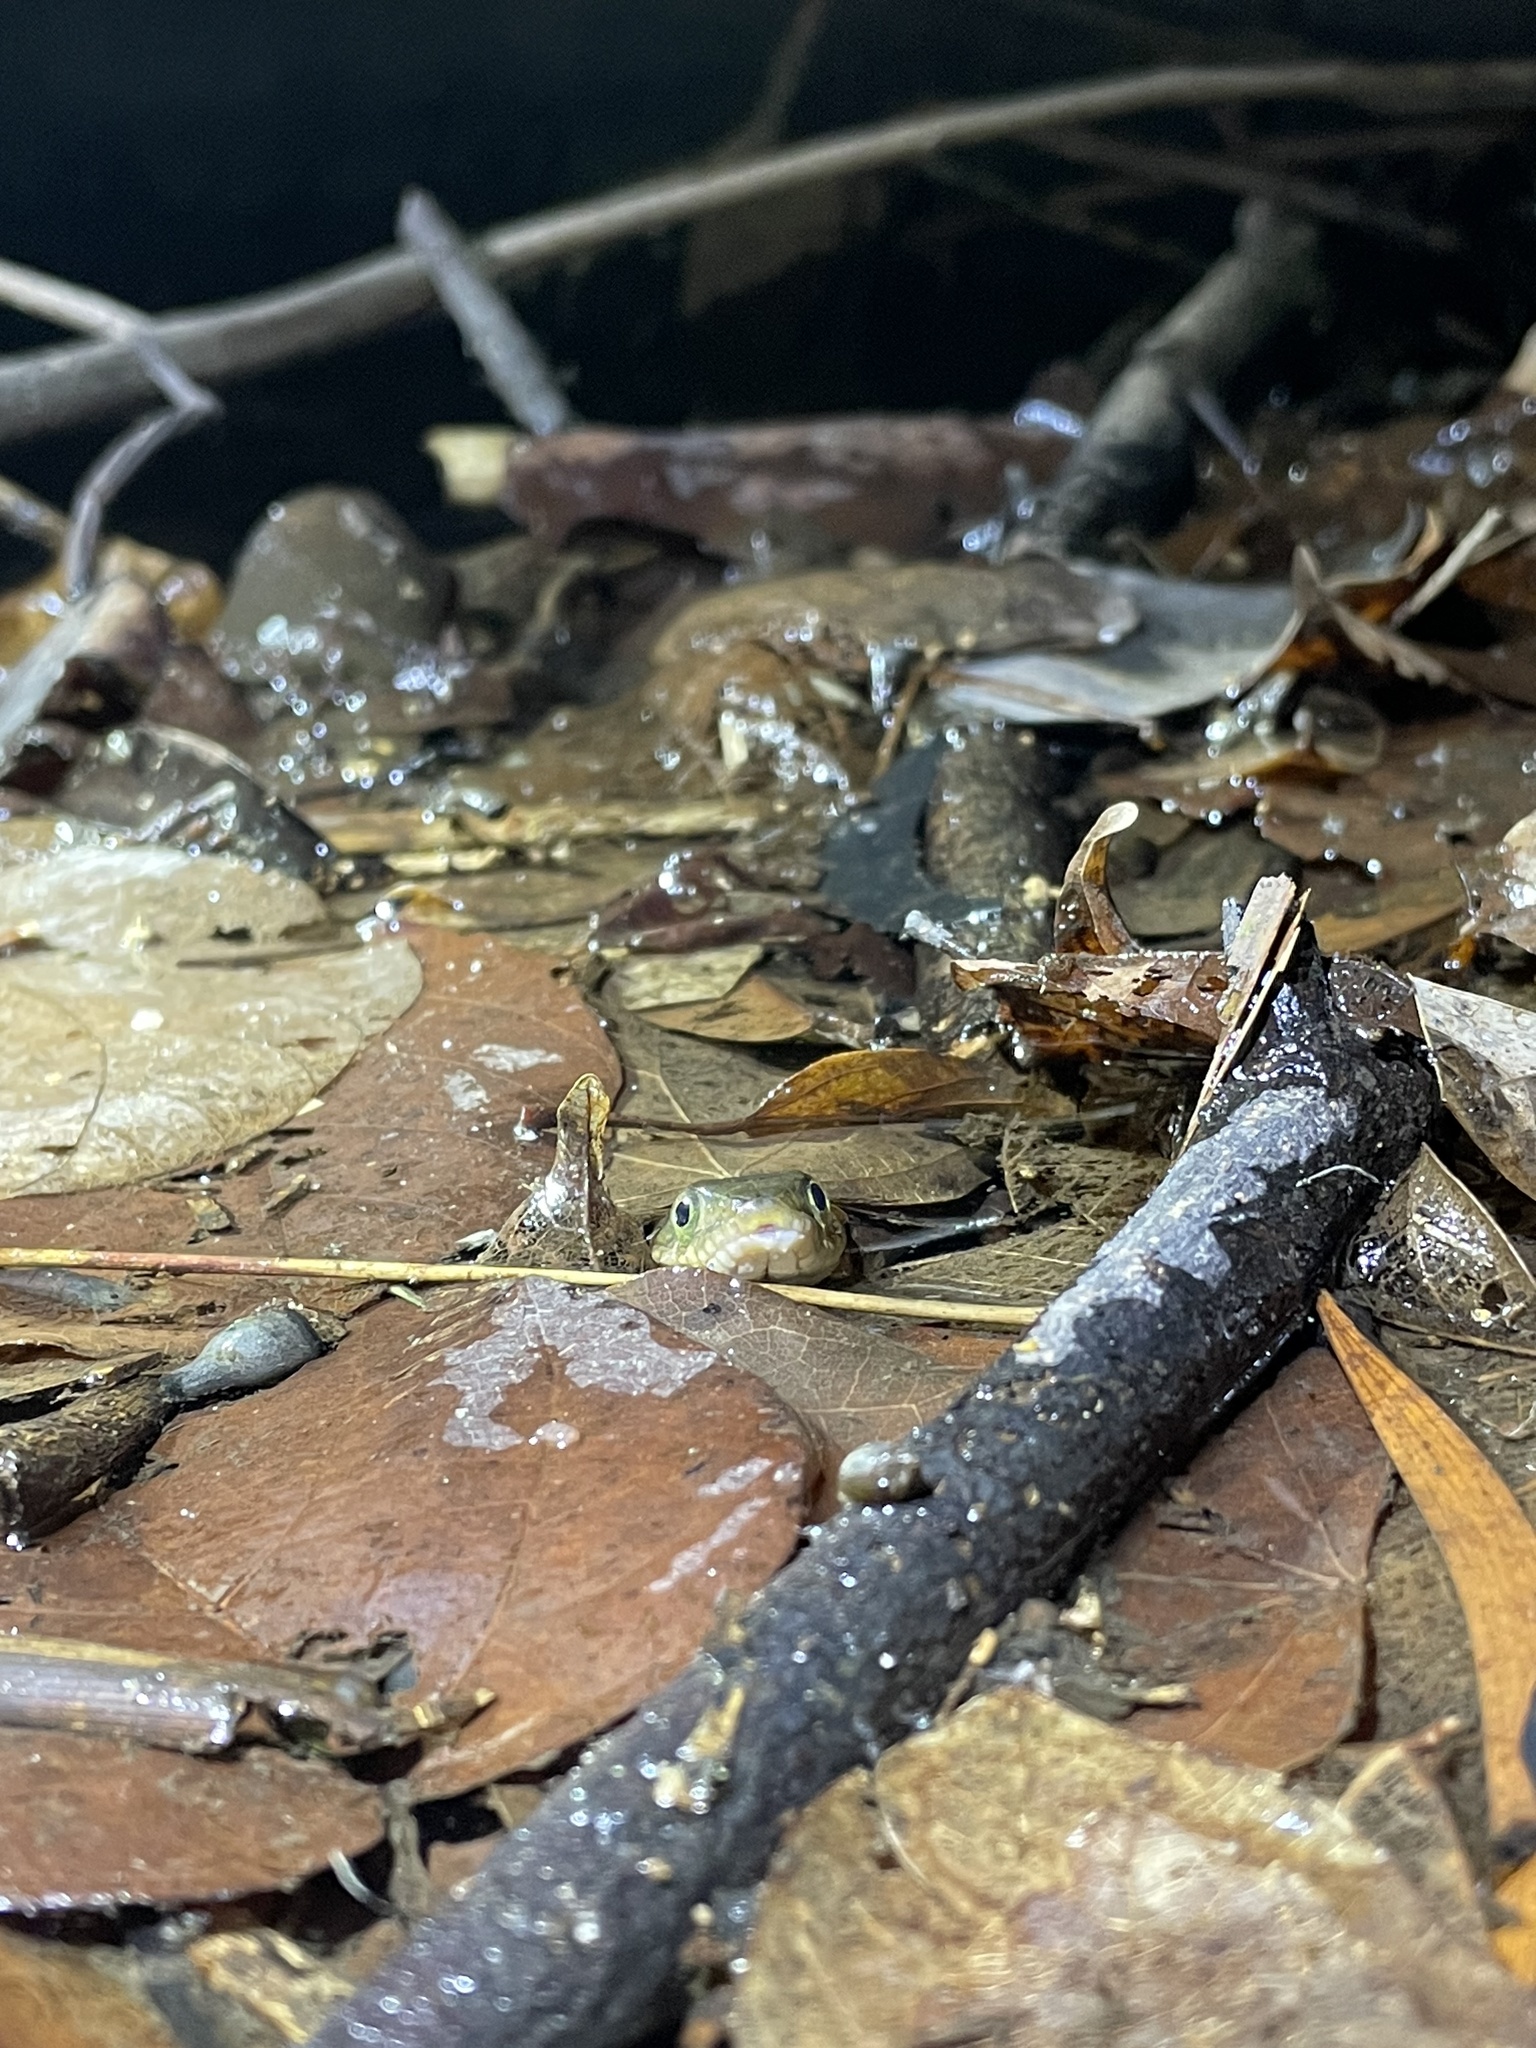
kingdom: Animalia
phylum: Chordata
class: Squamata
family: Colubridae
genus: Trimerodytes
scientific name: Trimerodytes percarinatus
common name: Eastern water snake
